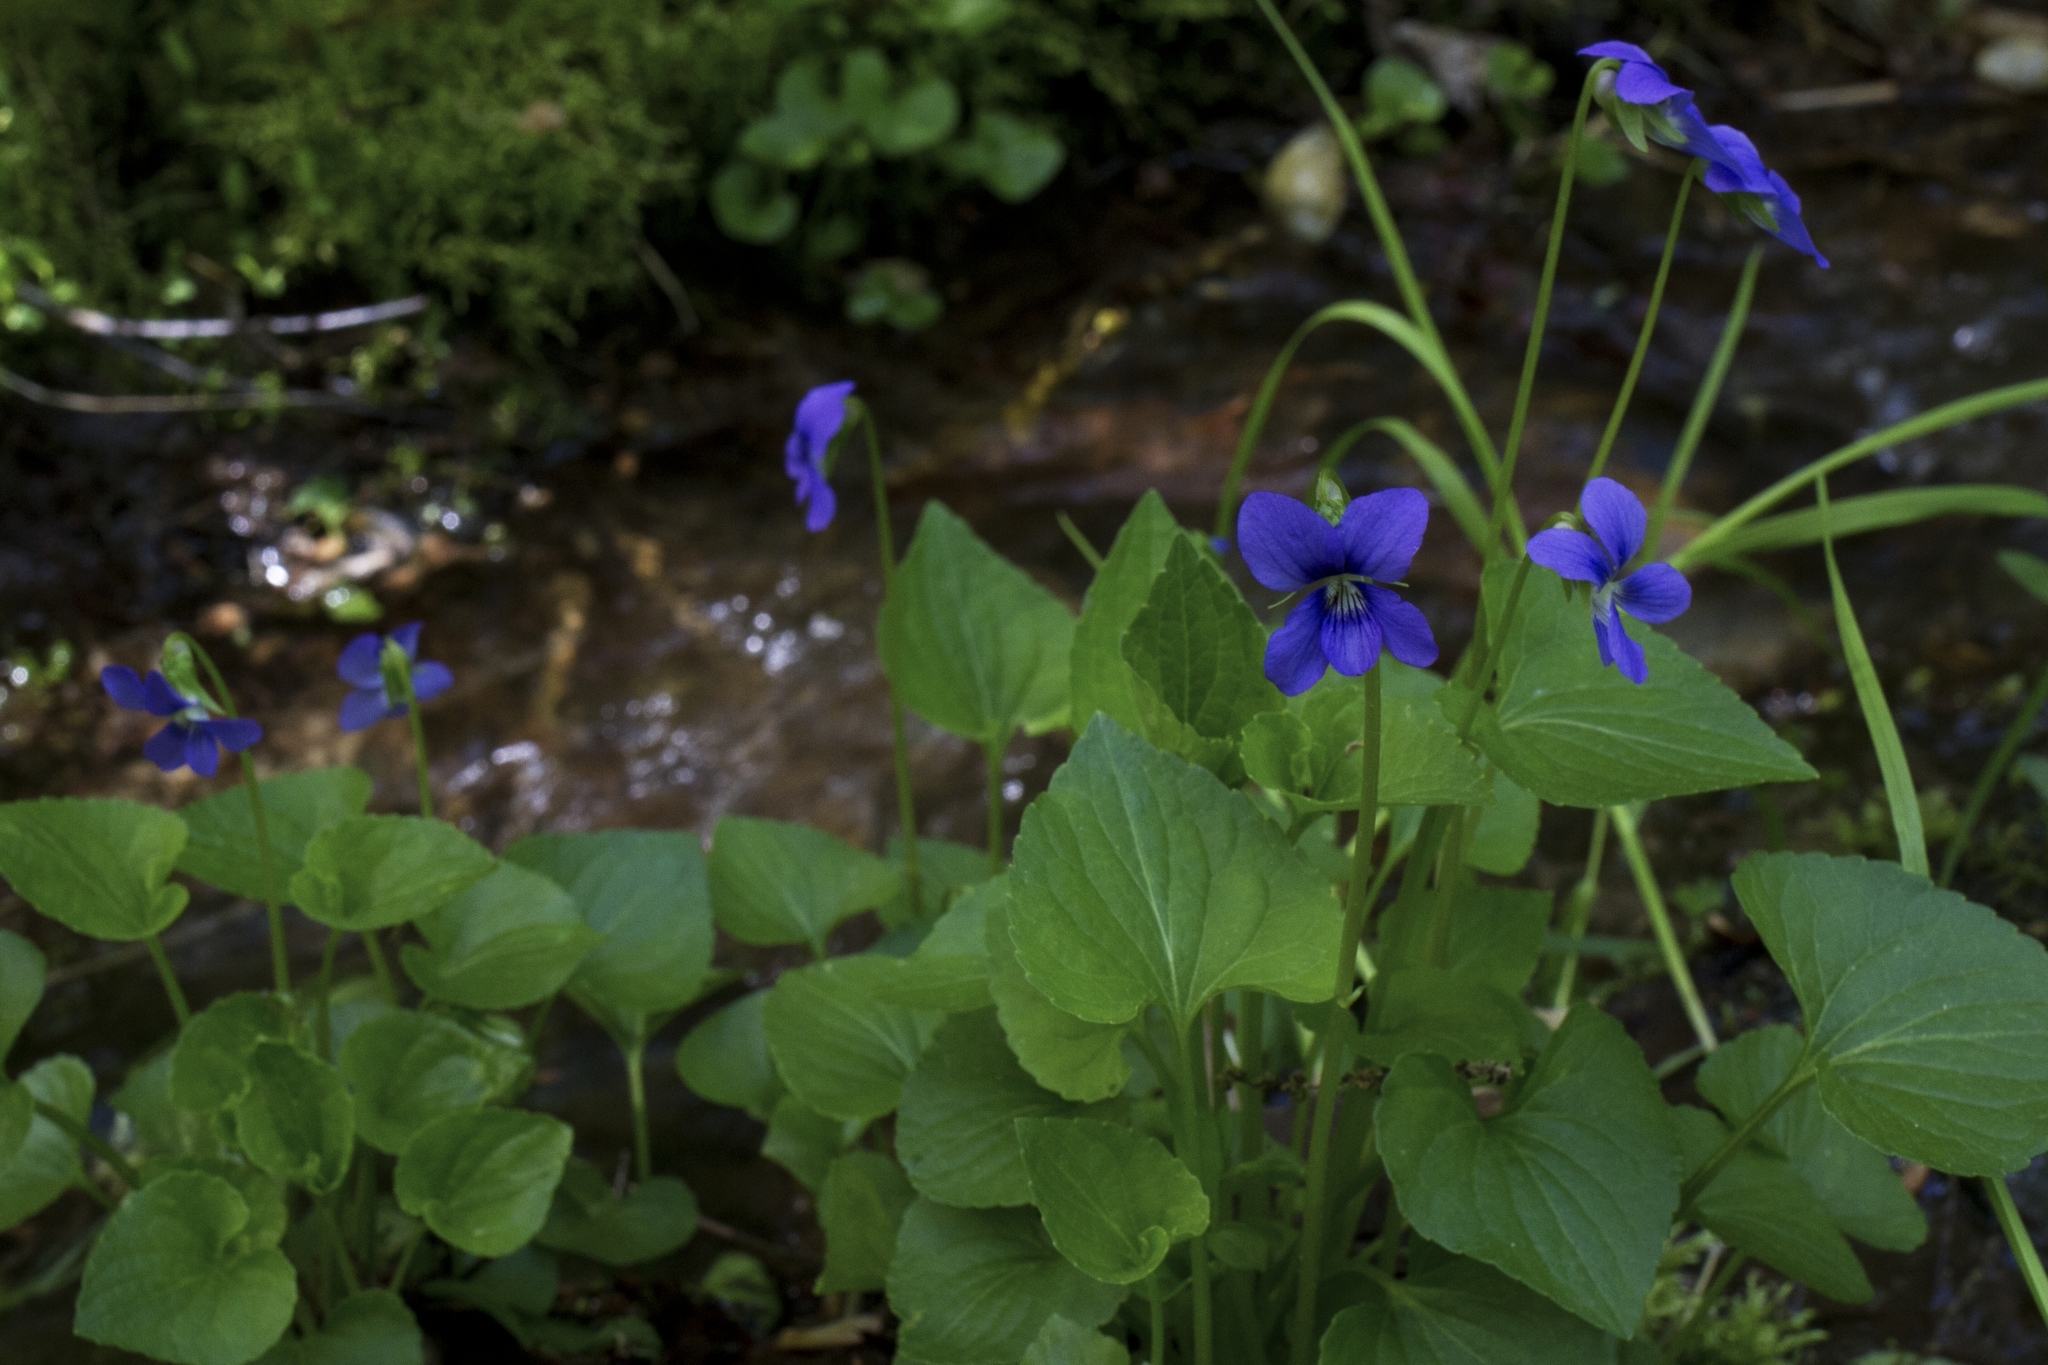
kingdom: Plantae
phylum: Tracheophyta
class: Magnoliopsida
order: Malpighiales
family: Violaceae
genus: Viola
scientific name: Viola cucullata
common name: Marsh blue violet
